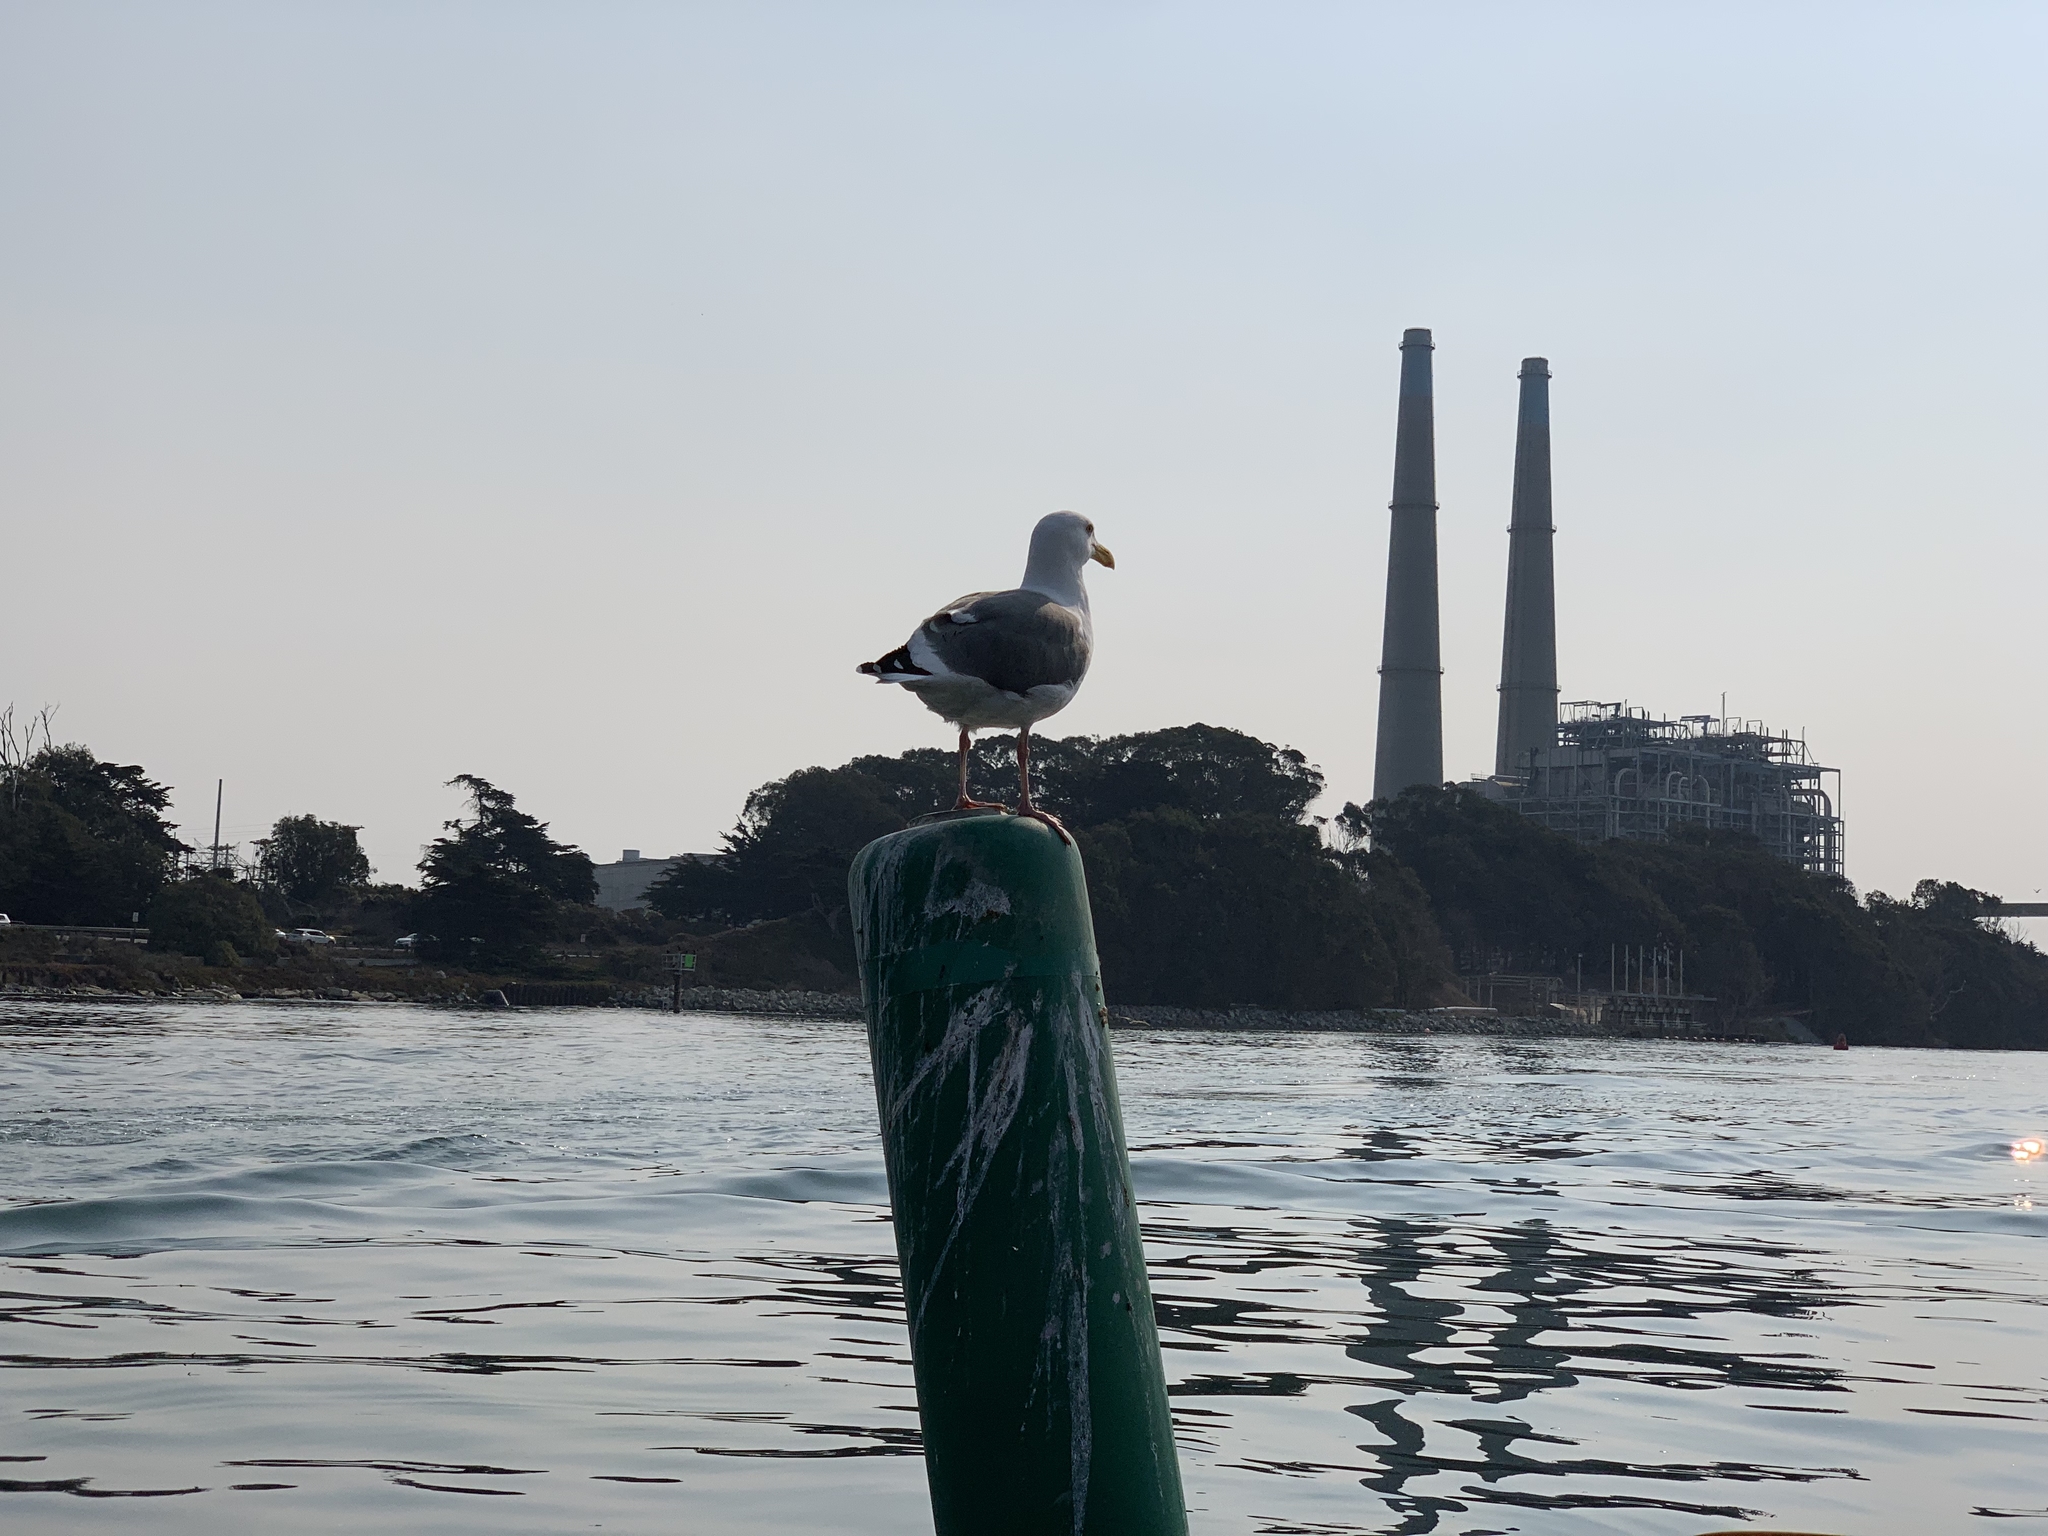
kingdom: Animalia
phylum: Chordata
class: Aves
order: Charadriiformes
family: Laridae
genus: Larus
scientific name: Larus occidentalis
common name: Western gull
